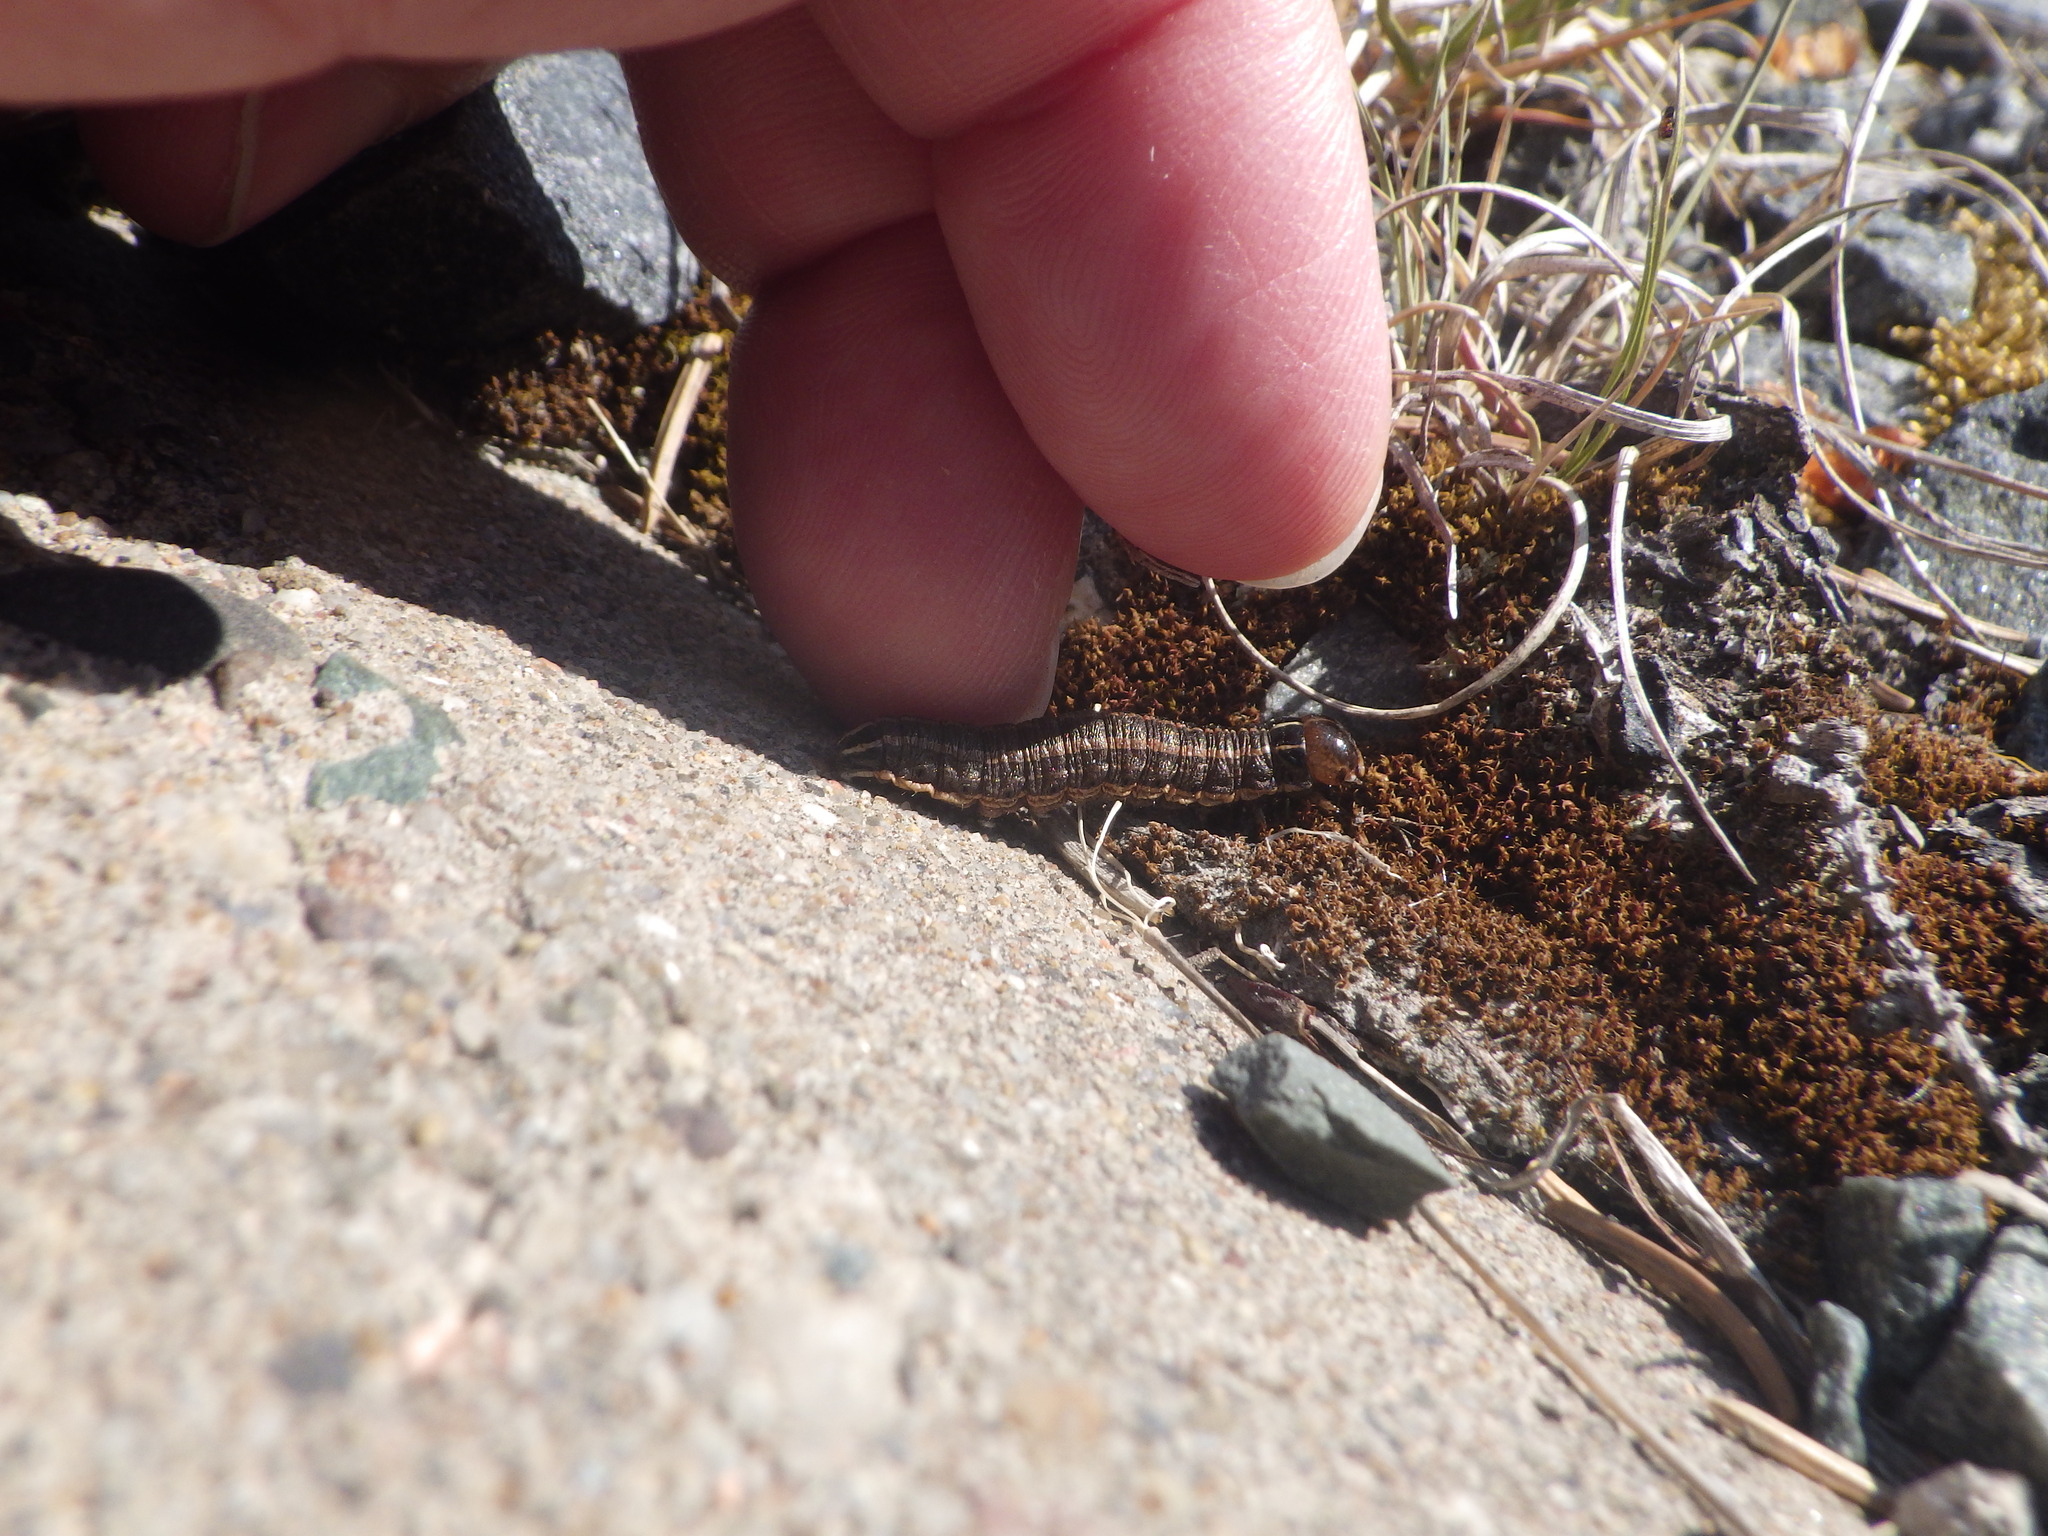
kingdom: Animalia
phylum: Arthropoda
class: Insecta
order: Lepidoptera
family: Noctuidae
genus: Nephelodes
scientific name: Nephelodes minians
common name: Bronzed cutworm
